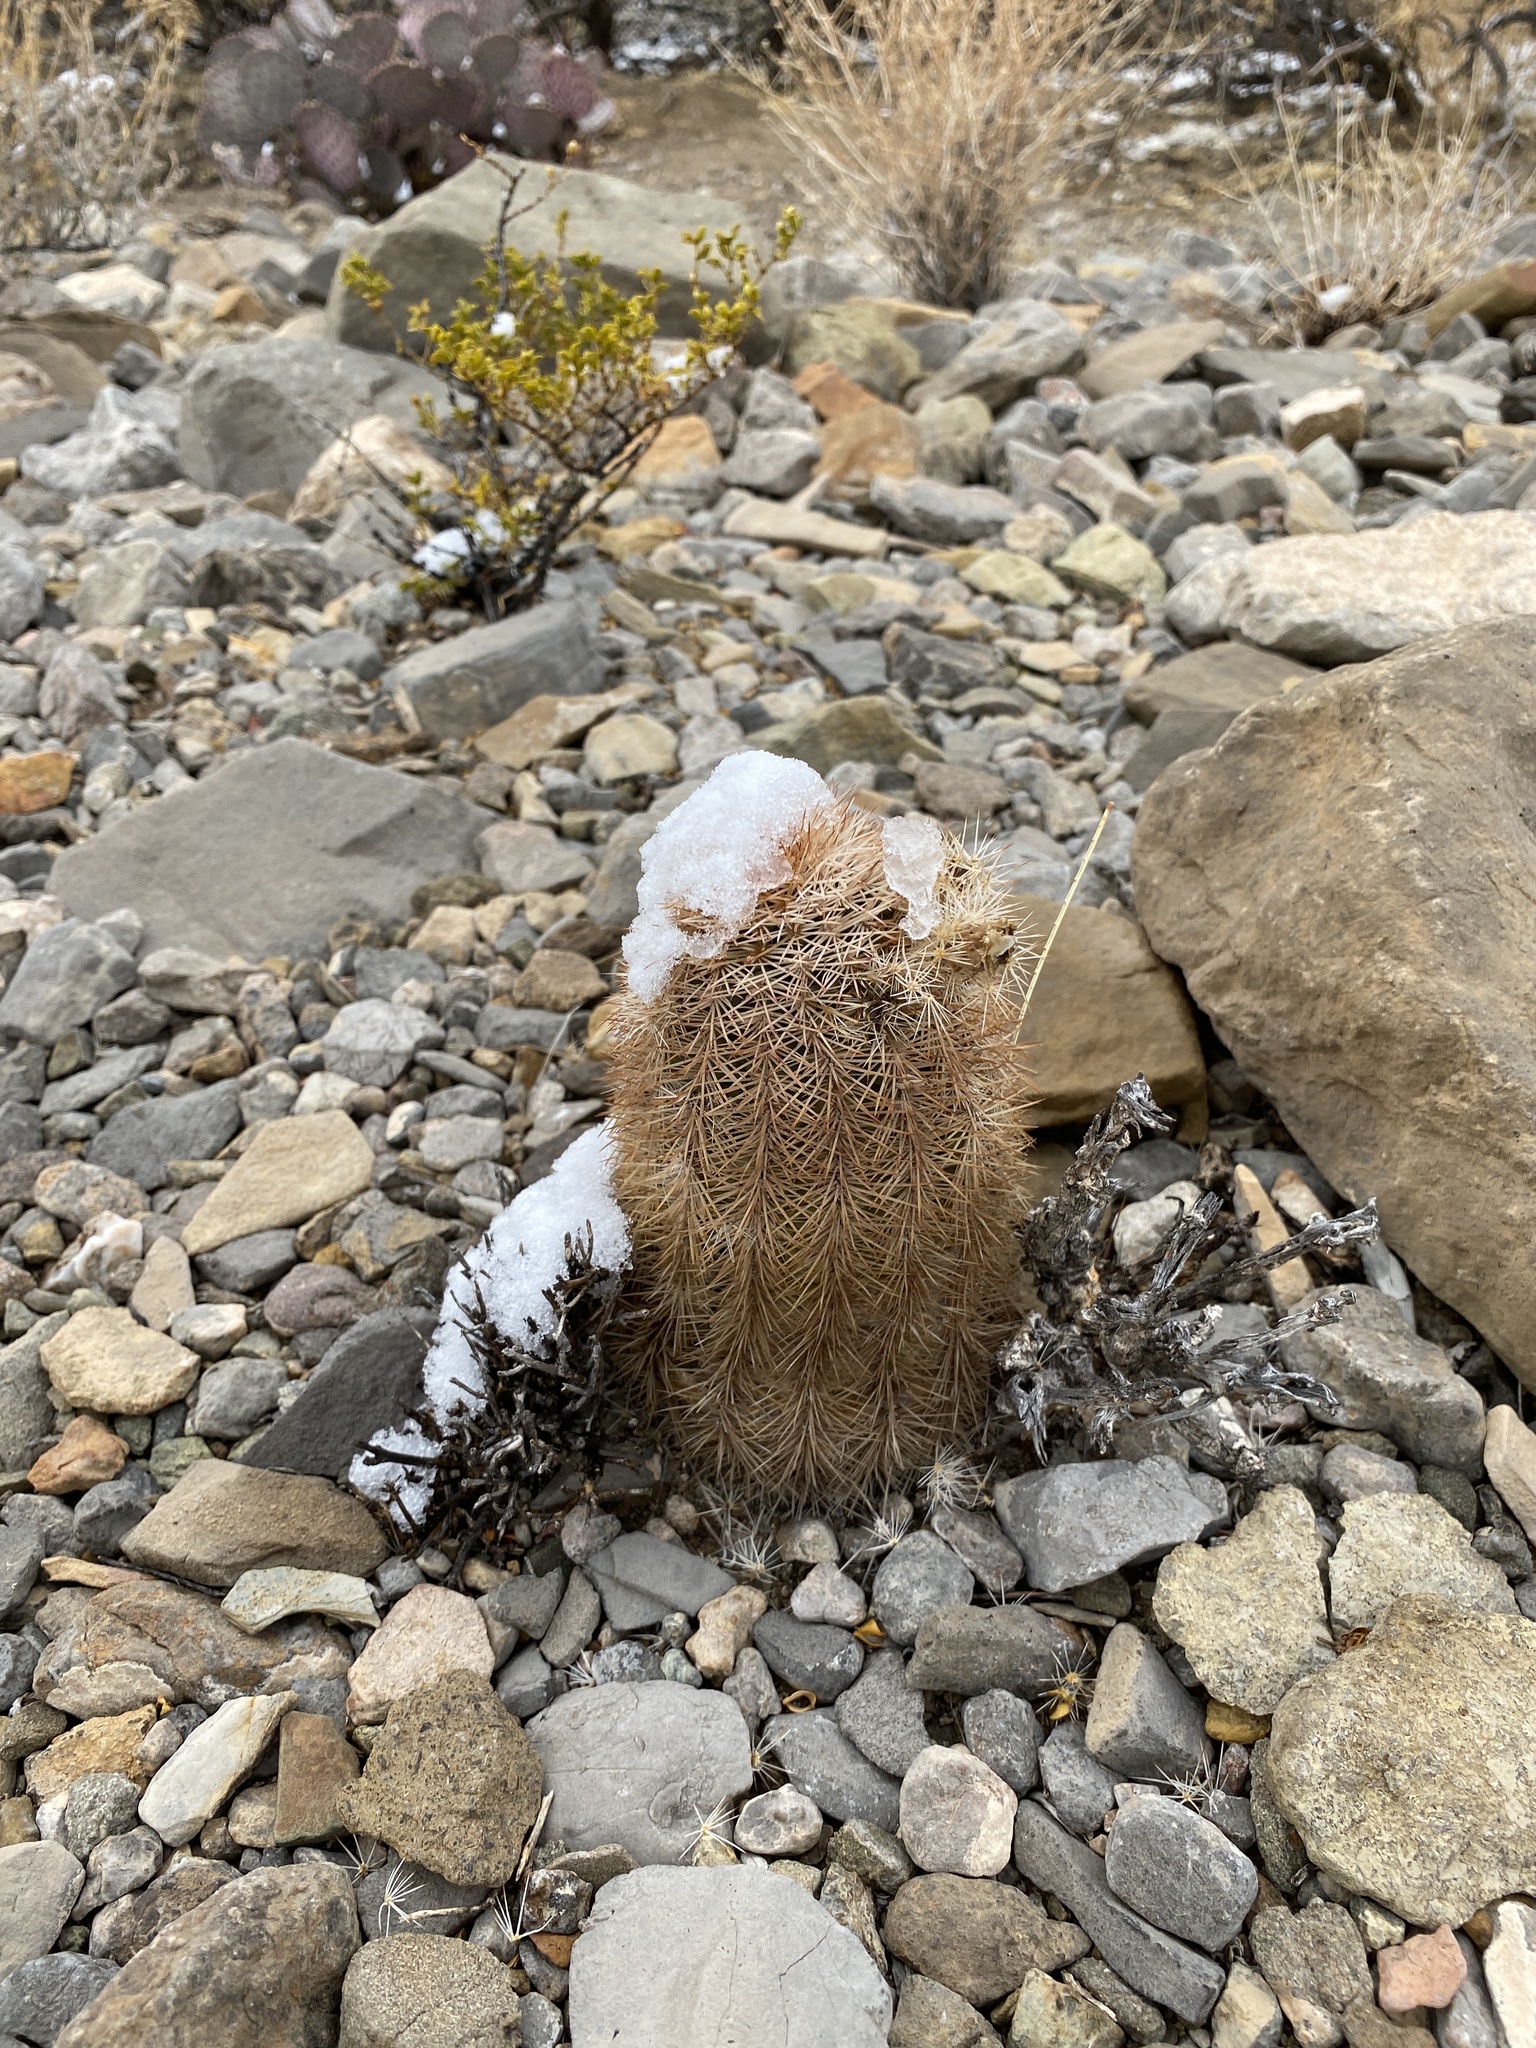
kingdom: Plantae
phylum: Tracheophyta
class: Magnoliopsida
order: Caryophyllales
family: Cactaceae
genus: Echinocereus
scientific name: Echinocereus dasyacanthus
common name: Spiny hedgehog cactus
